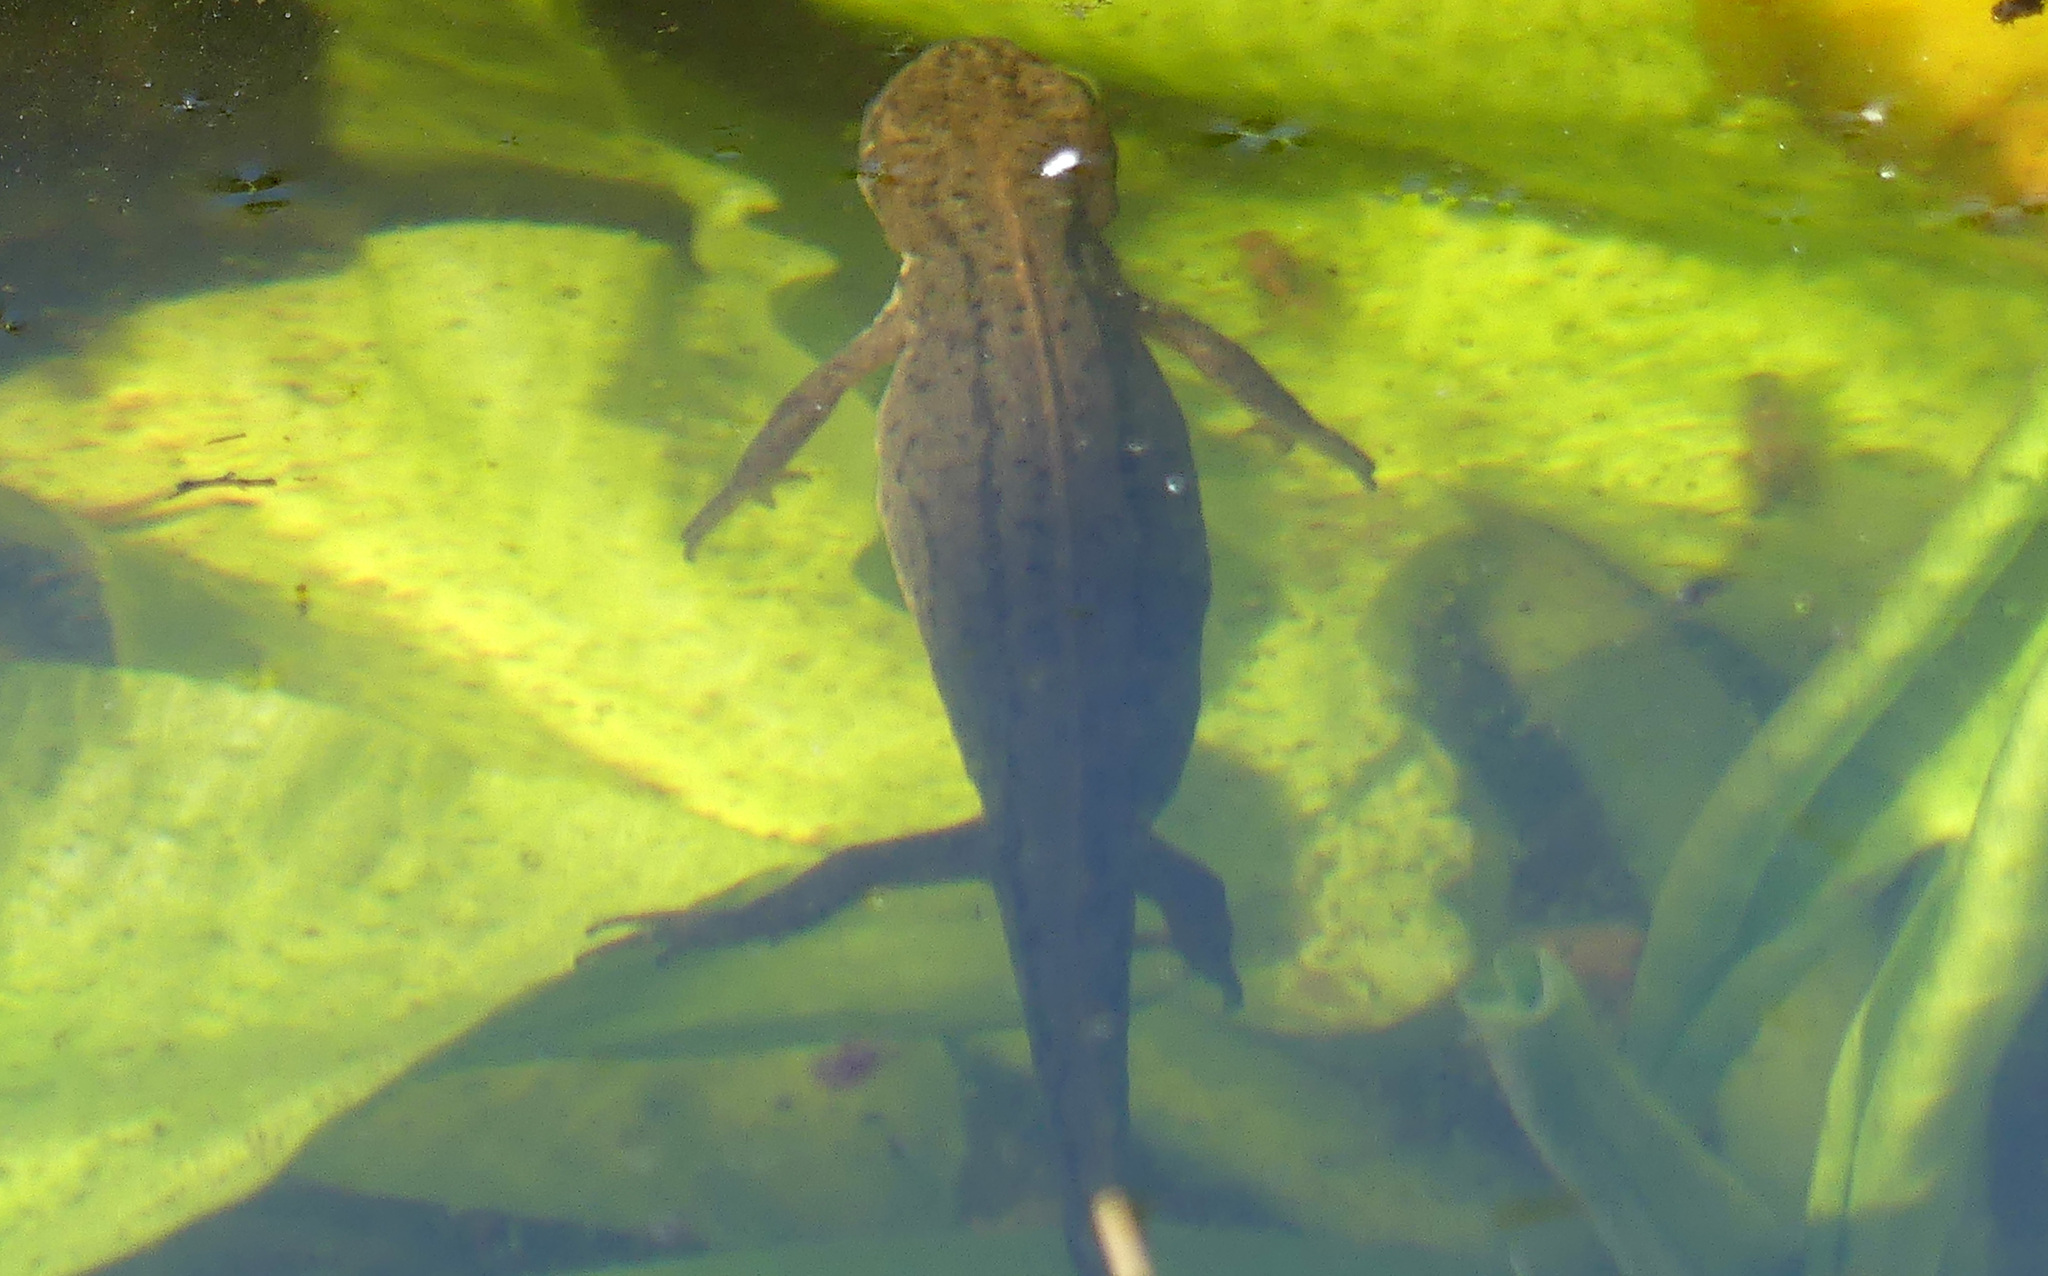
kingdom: Animalia
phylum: Chordata
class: Amphibia
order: Caudata
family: Salamandridae
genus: Lissotriton
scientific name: Lissotriton vulgaris
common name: Smooth newt
